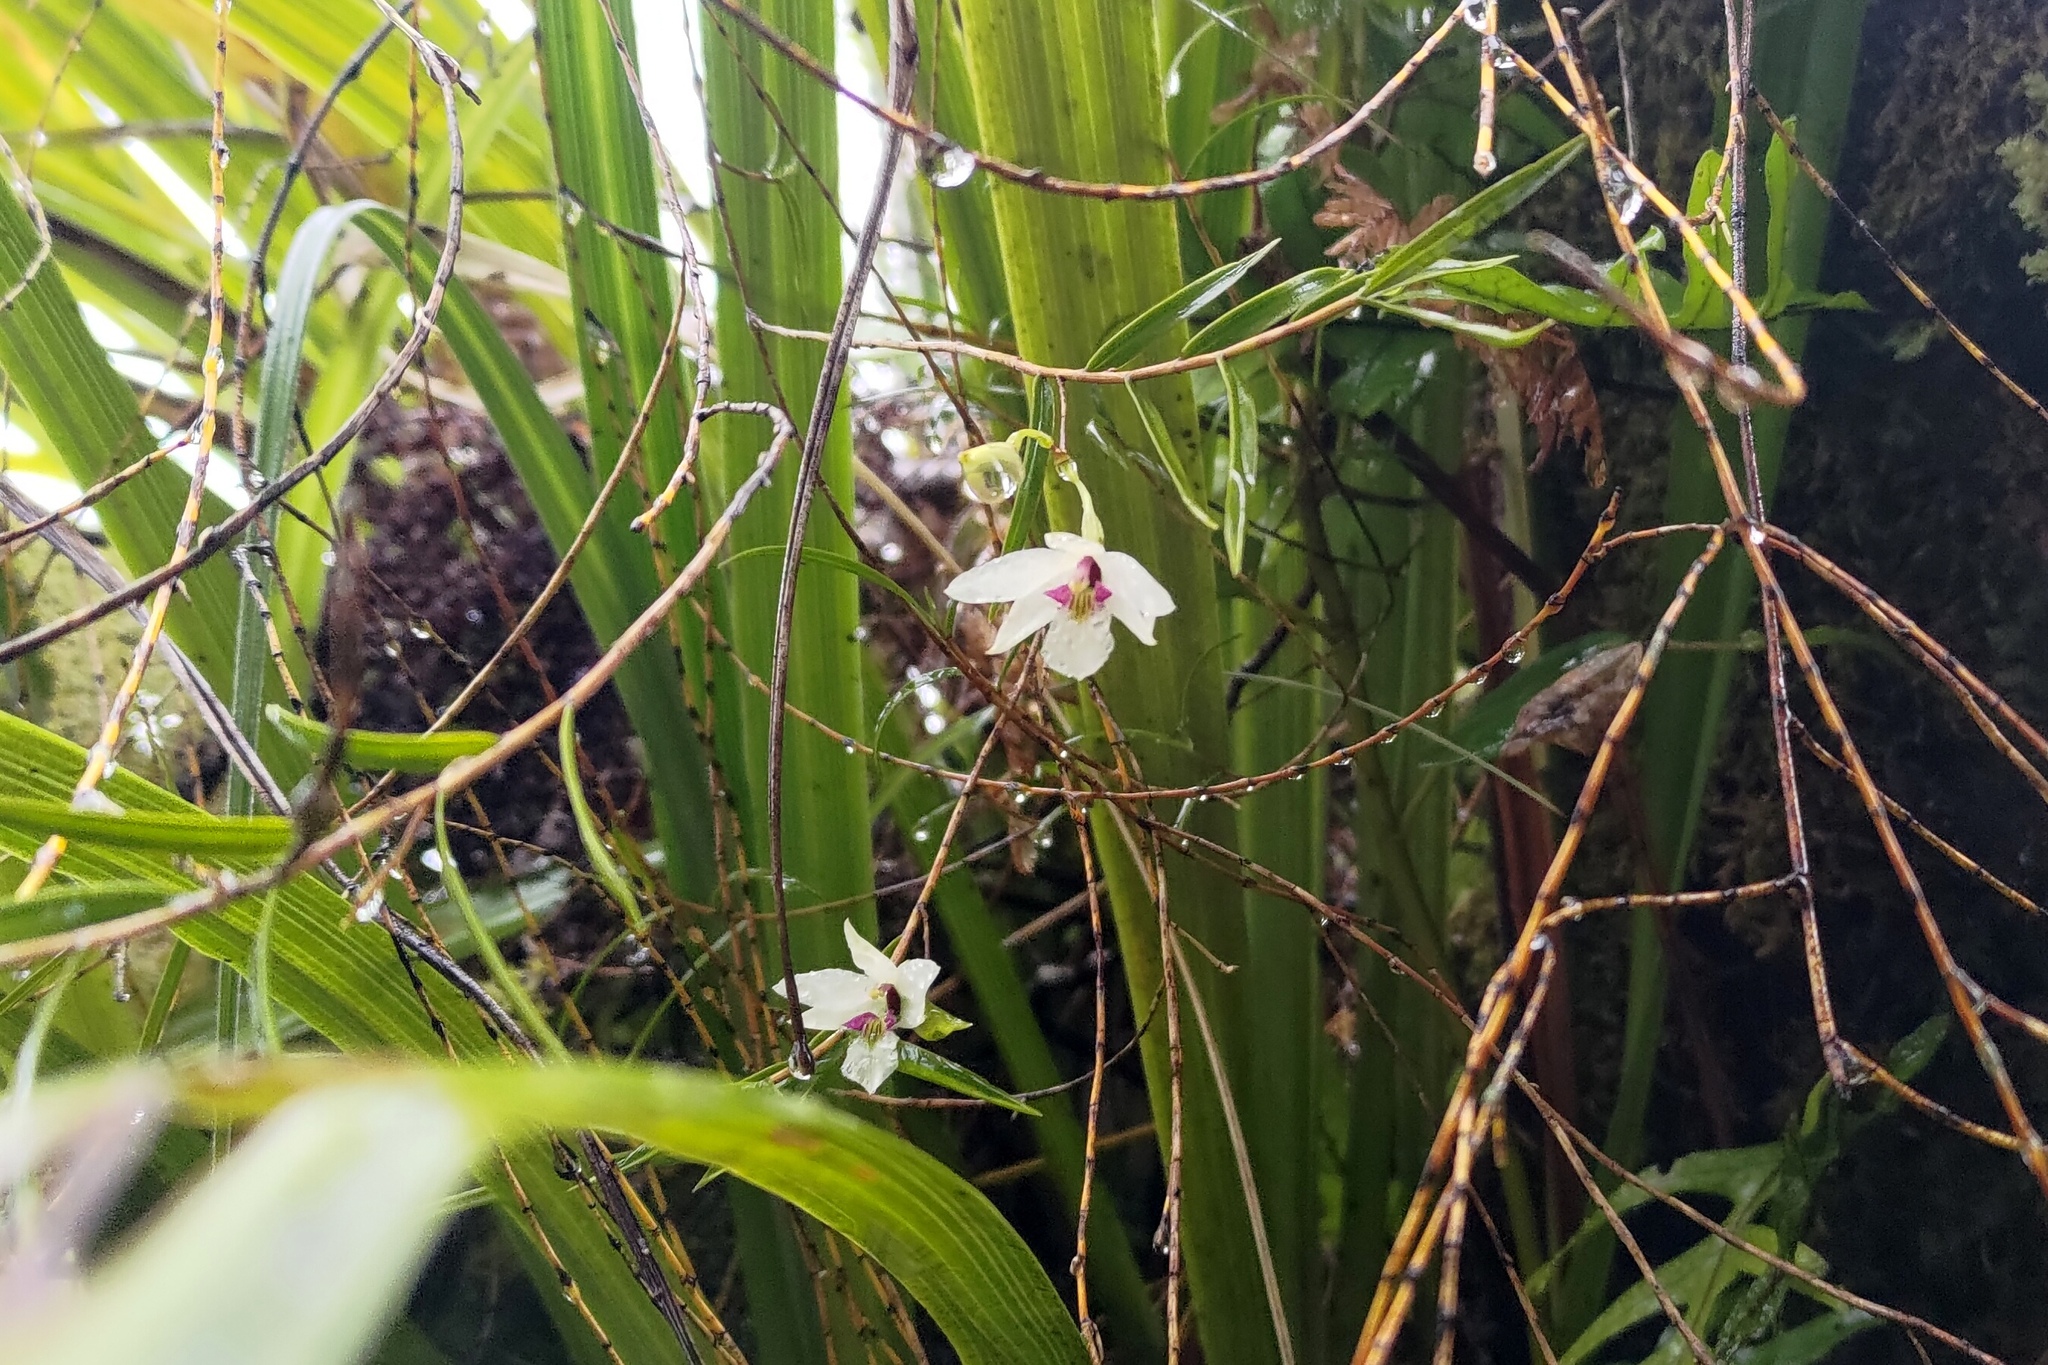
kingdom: Plantae
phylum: Tracheophyta
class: Liliopsida
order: Asparagales
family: Orchidaceae
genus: Dendrobium
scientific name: Dendrobium cunninghamii
